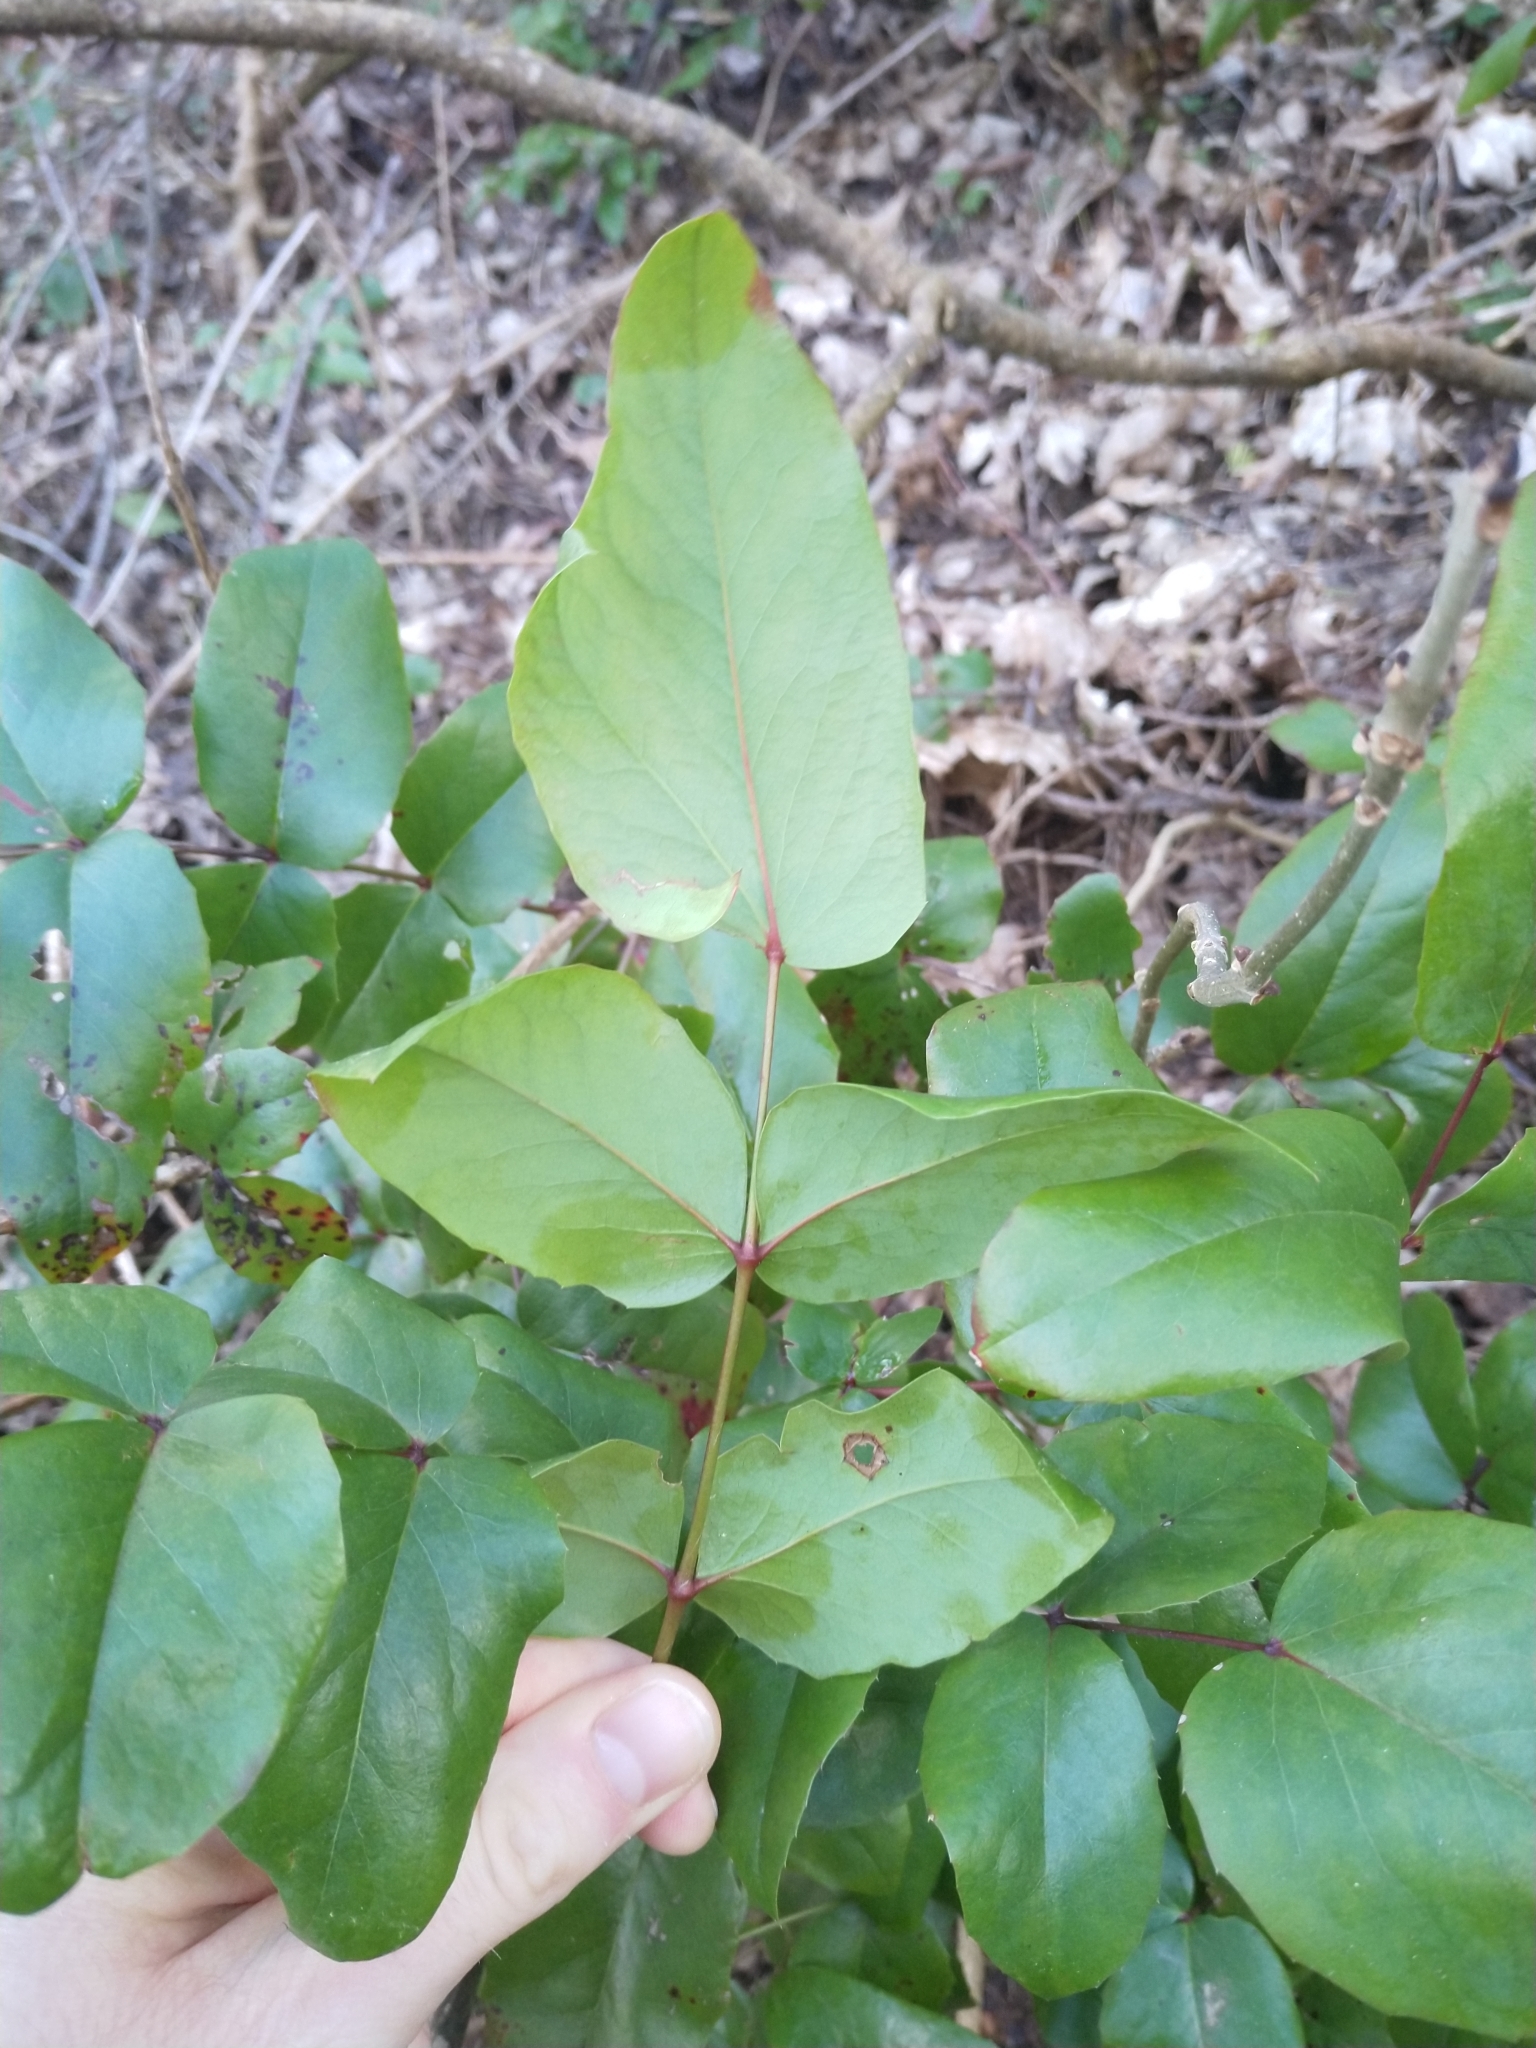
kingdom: Plantae
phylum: Tracheophyta
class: Magnoliopsida
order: Ranunculales
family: Berberidaceae
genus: Mahonia
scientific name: Mahonia aquifolium
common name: Oregon-grape
